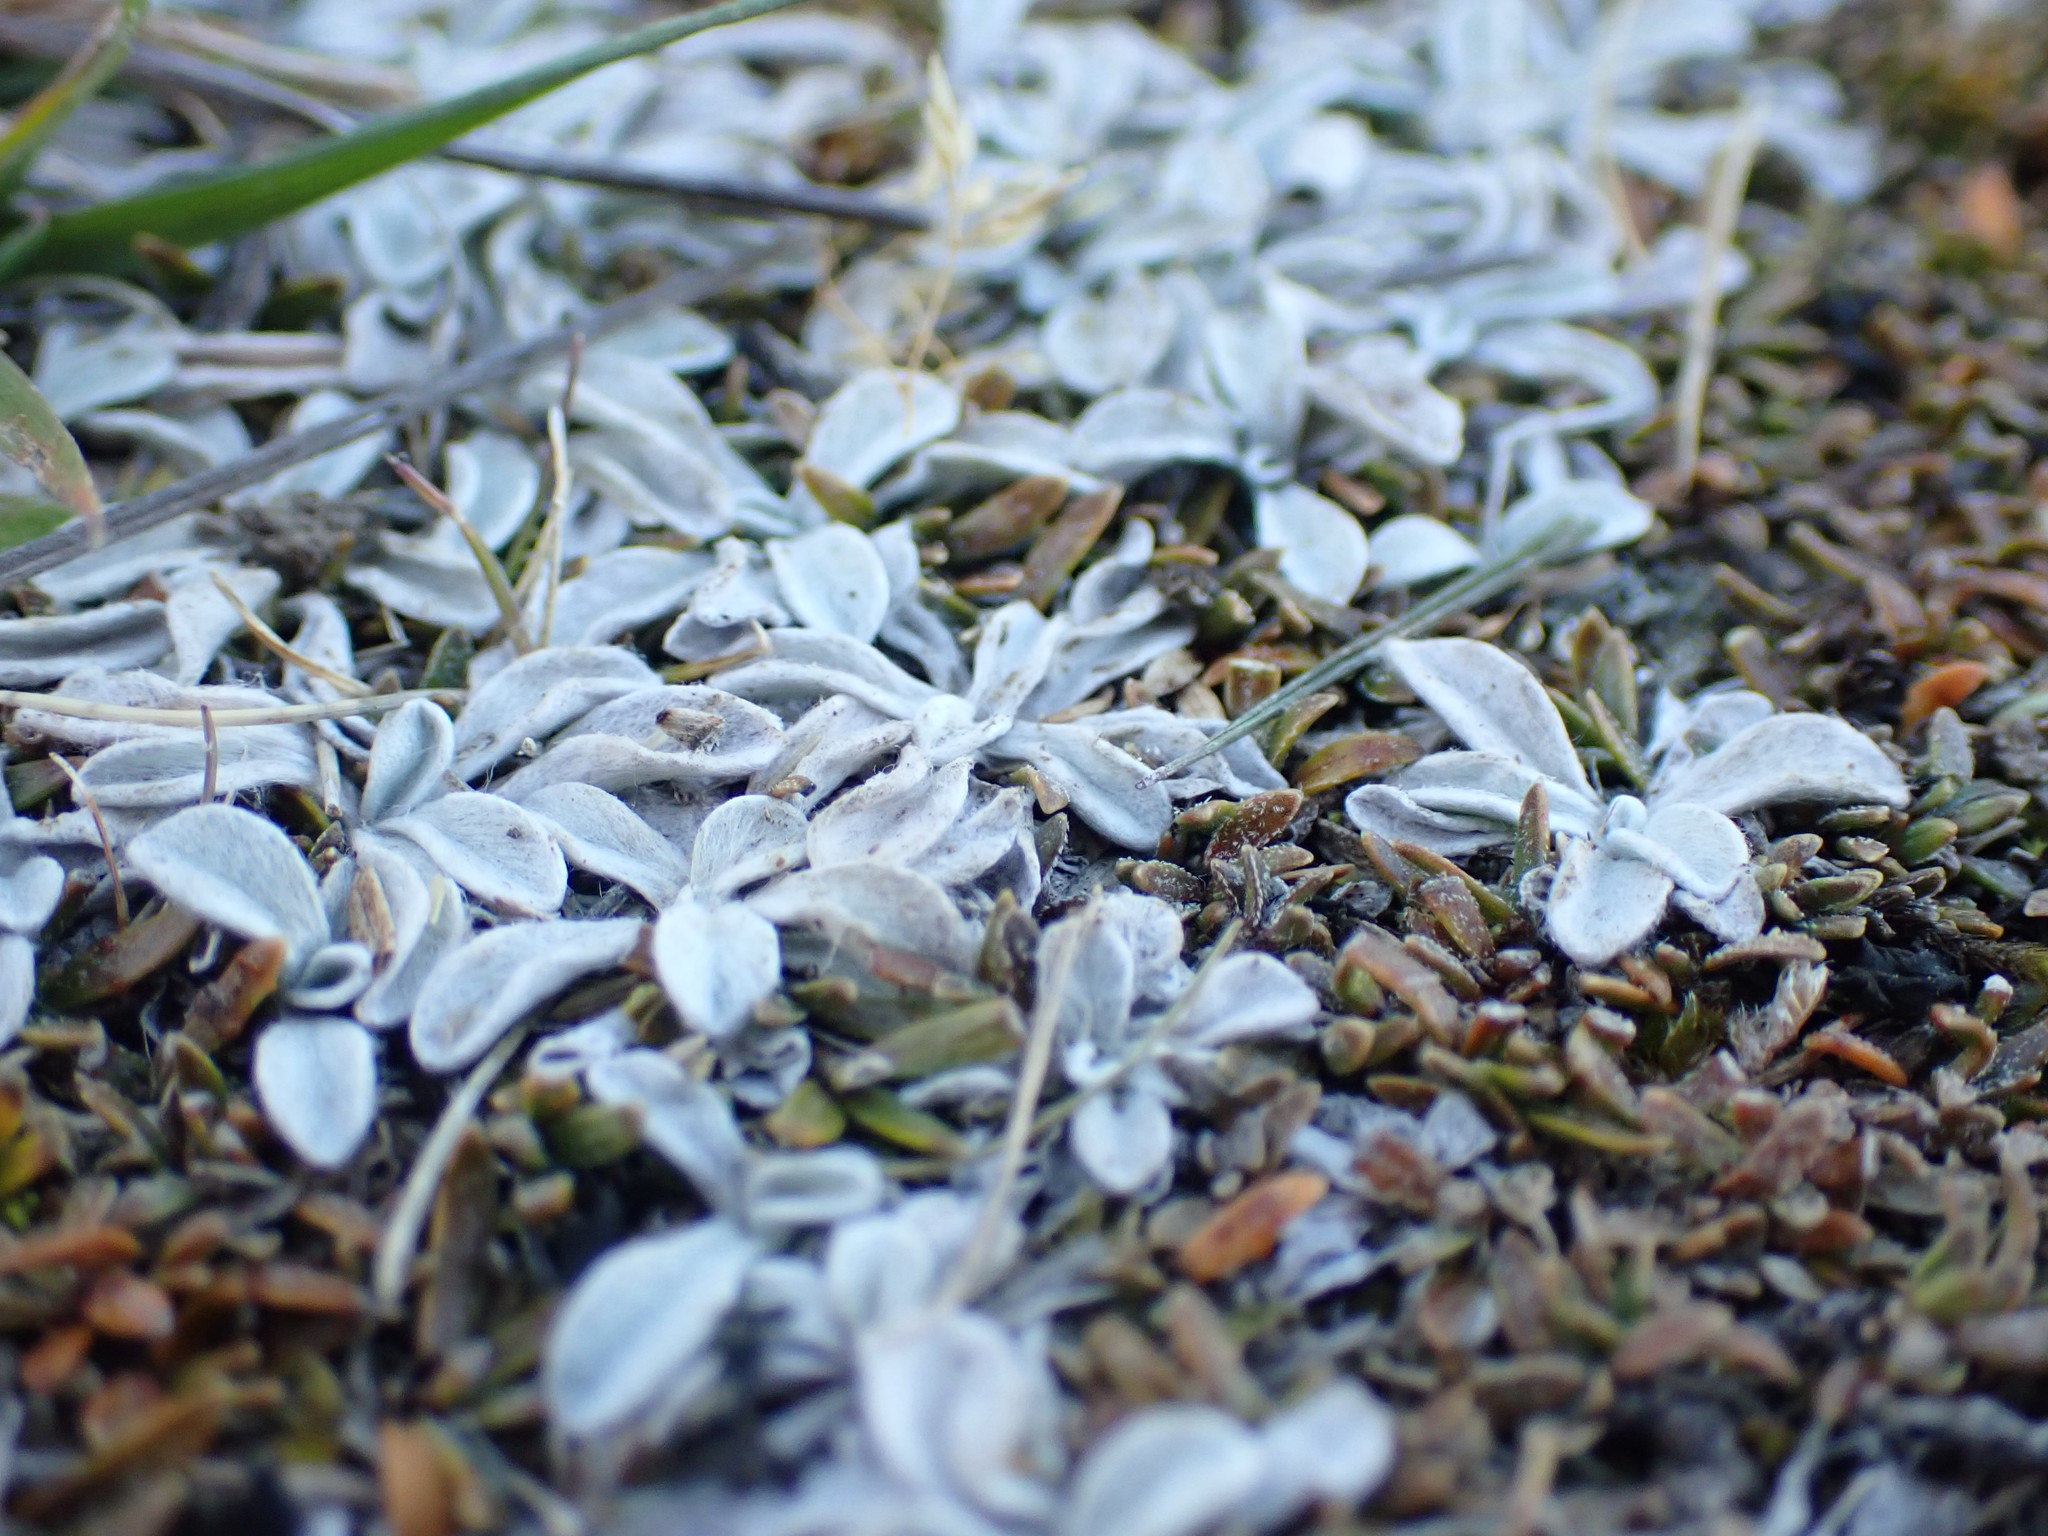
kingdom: Plantae
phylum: Tracheophyta
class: Magnoliopsida
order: Asterales
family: Asteraceae
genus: Argyrotegium
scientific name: Argyrotegium mackayi
